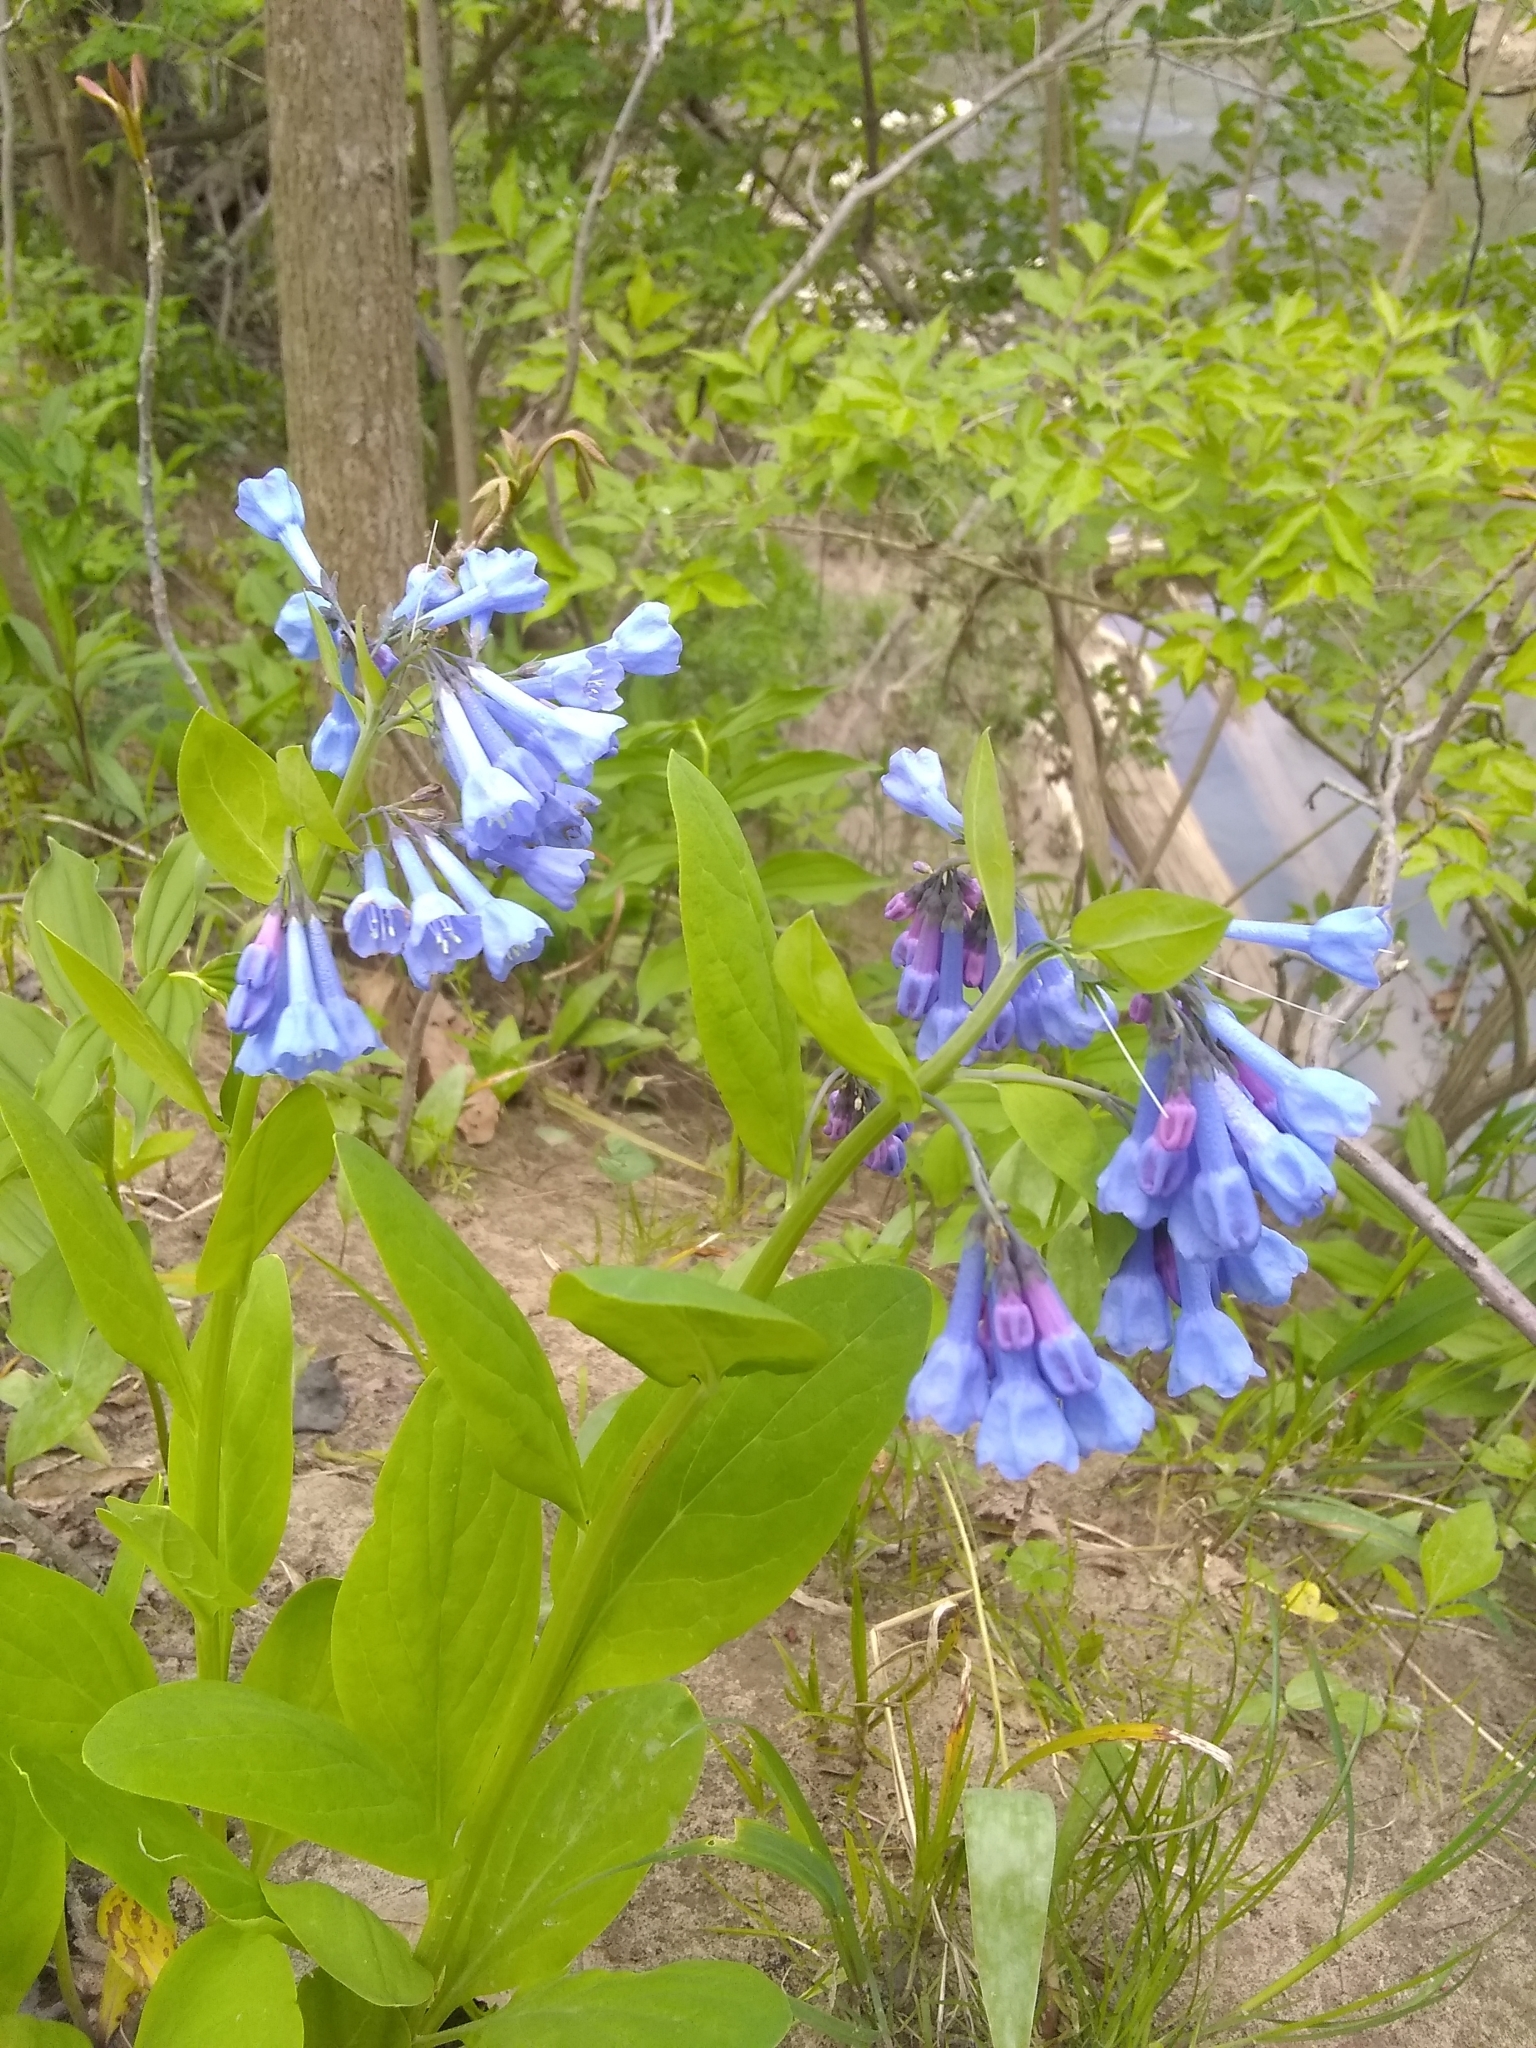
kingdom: Plantae
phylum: Tracheophyta
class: Magnoliopsida
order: Boraginales
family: Boraginaceae
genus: Mertensia
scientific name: Mertensia virginica
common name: Virginia bluebells
